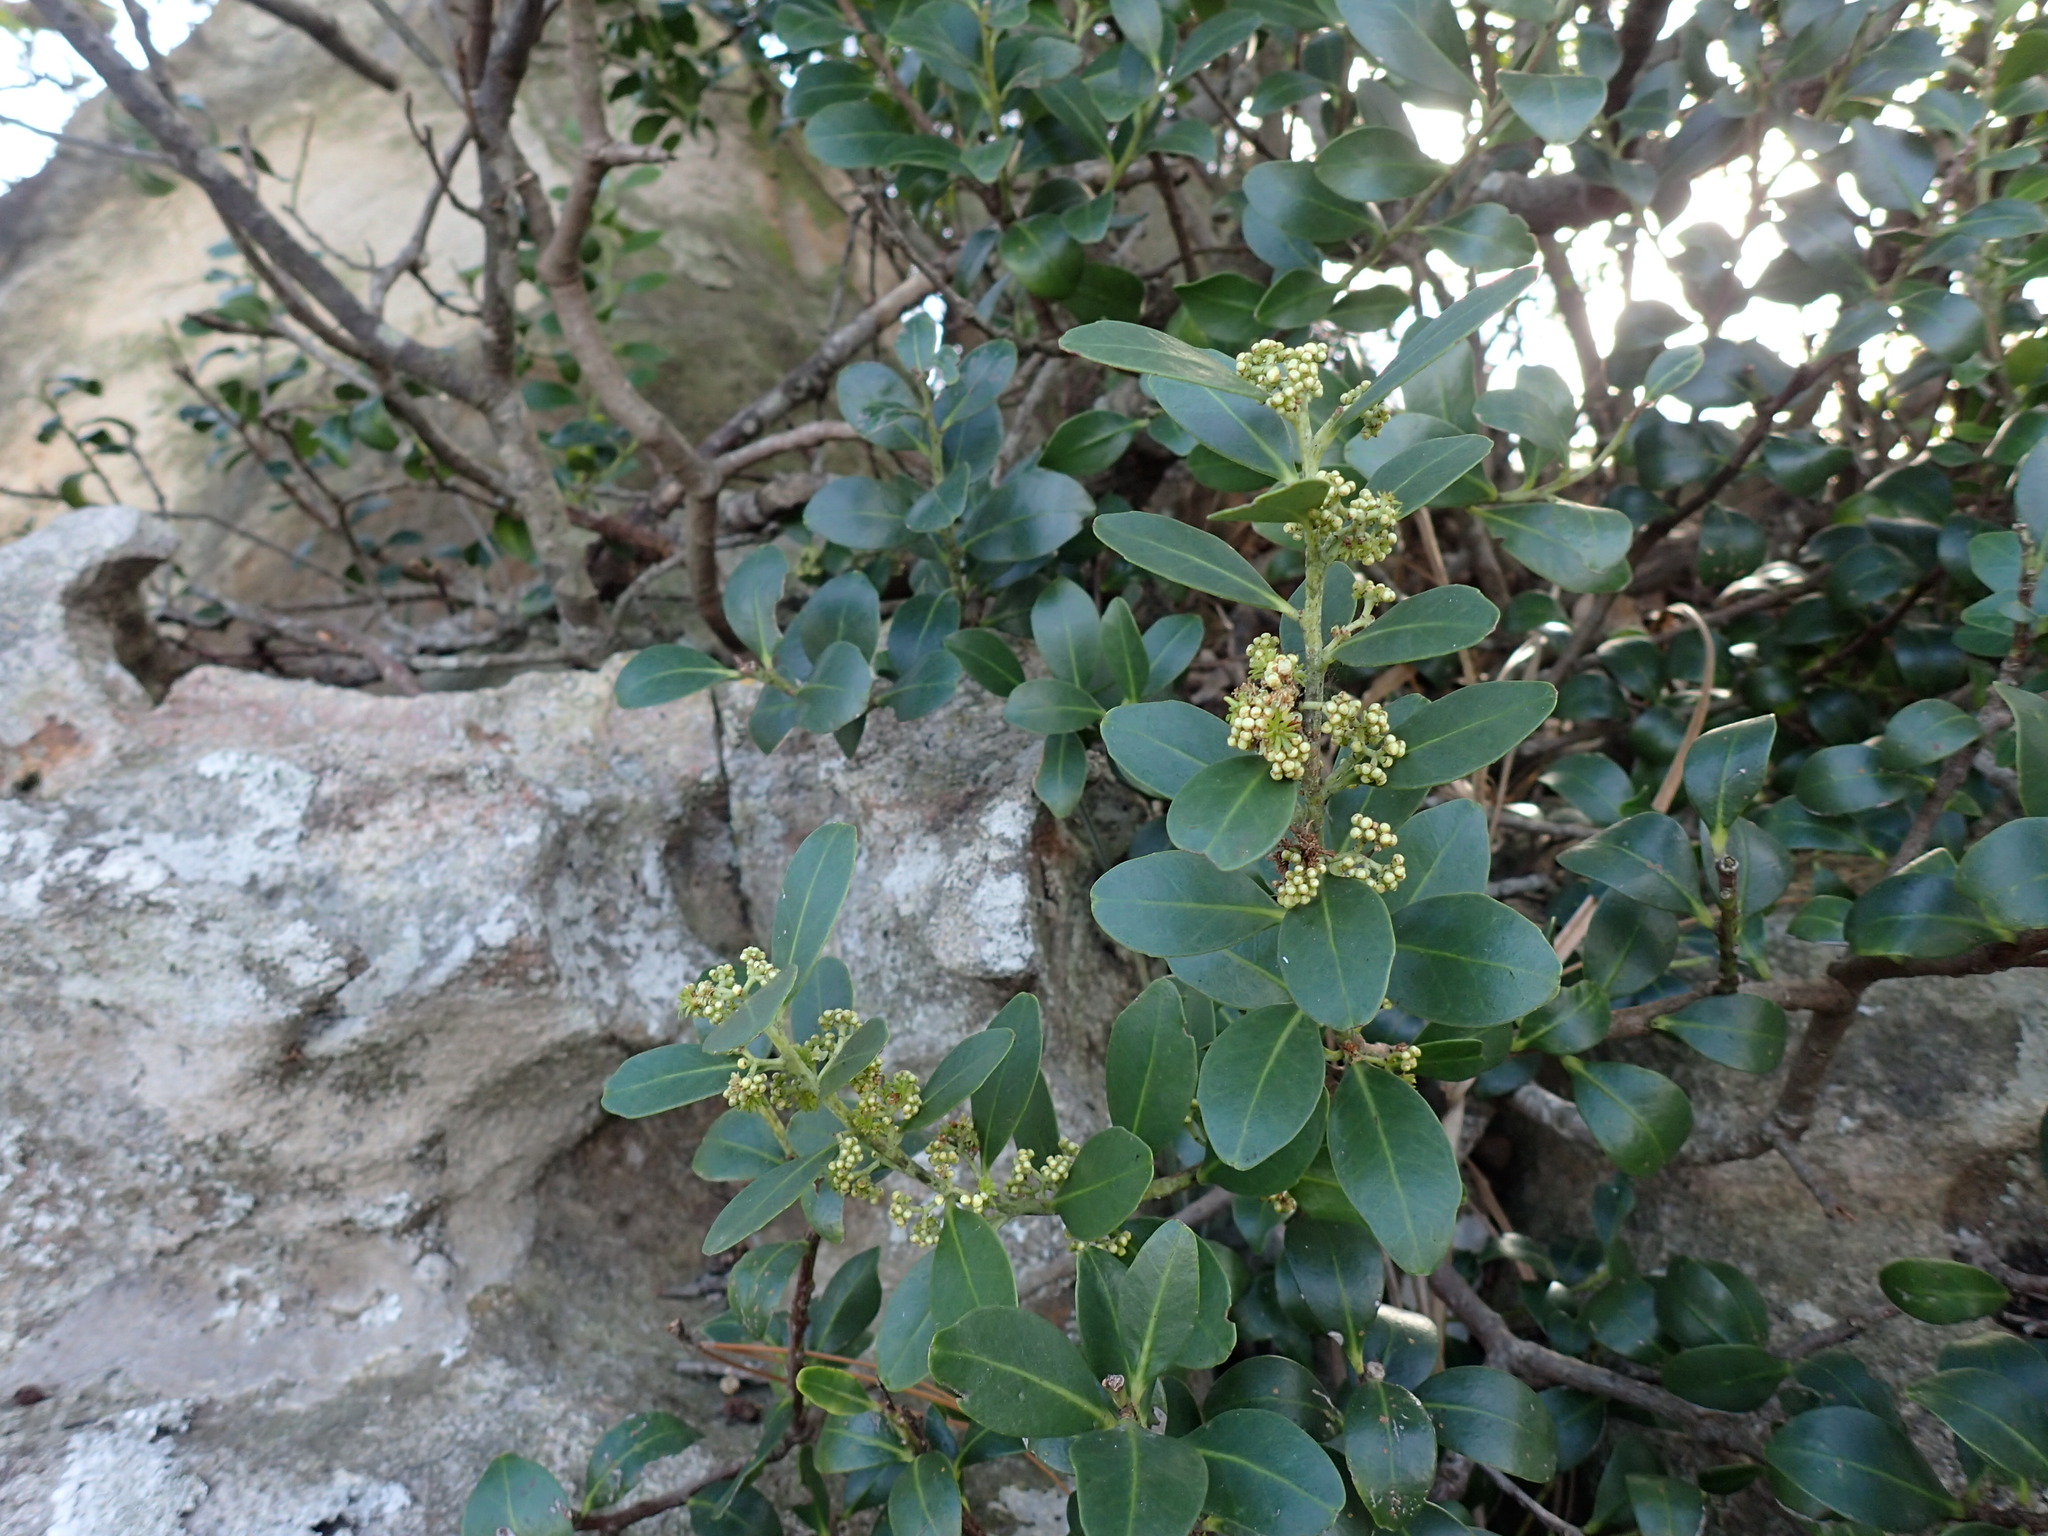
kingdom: Plantae
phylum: Tracheophyta
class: Magnoliopsida
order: Celastrales
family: Celastraceae
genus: Pterocelastrus
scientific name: Pterocelastrus echinatus
